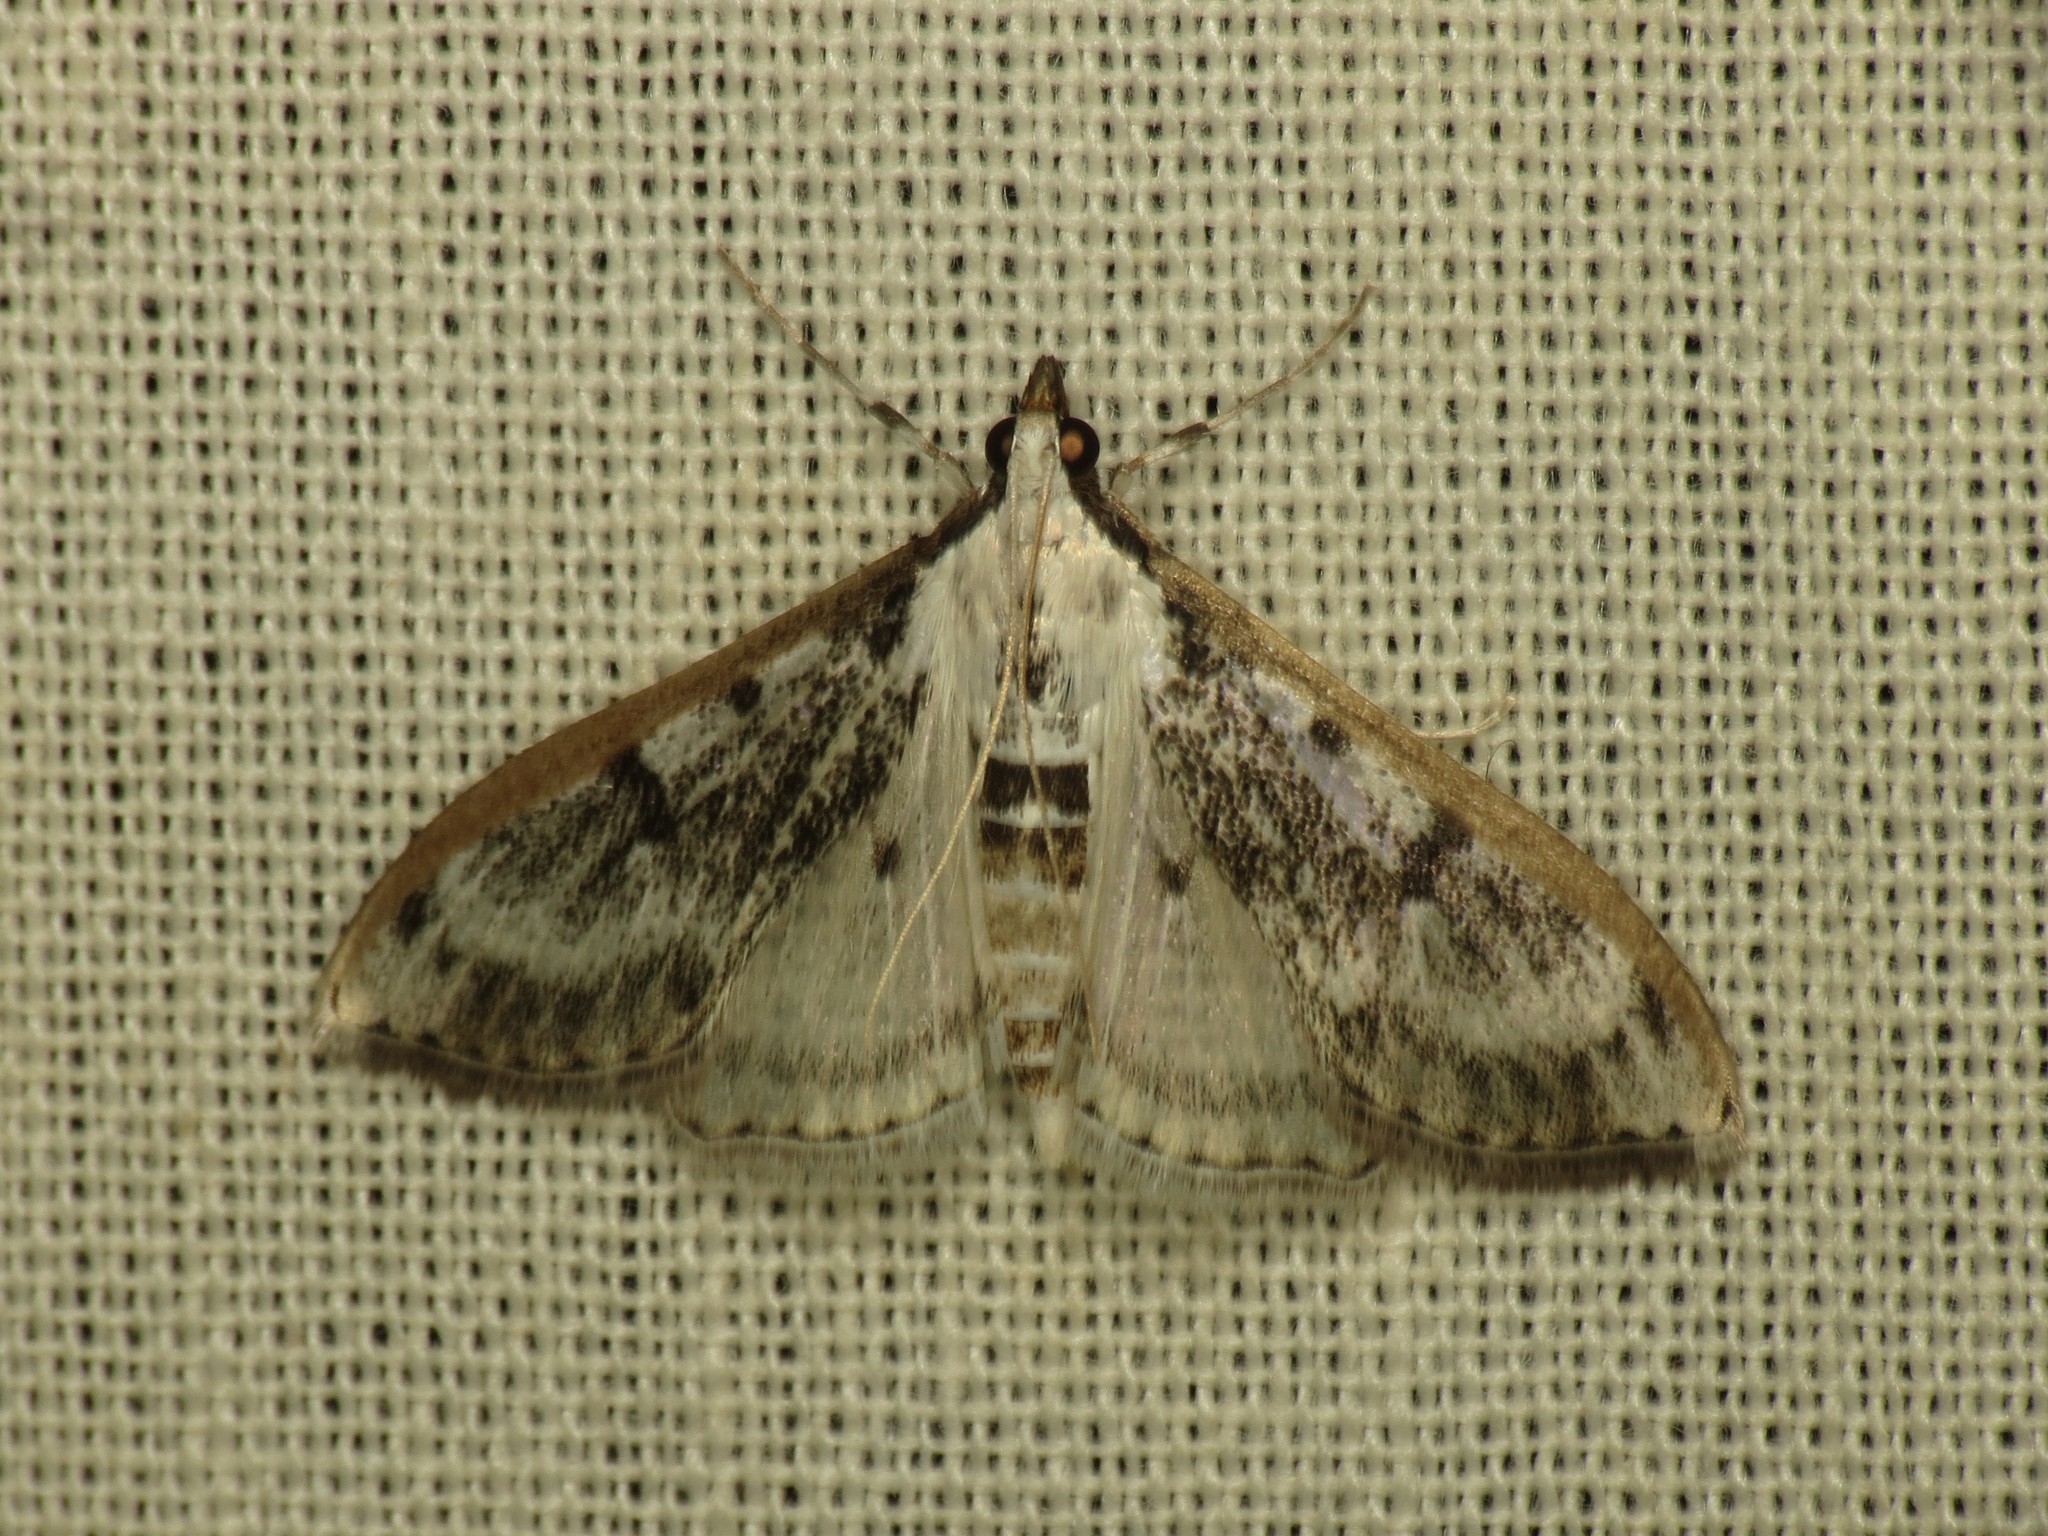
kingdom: Animalia
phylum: Arthropoda
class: Insecta
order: Lepidoptera
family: Crambidae
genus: Palpita
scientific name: Palpita gracilalis
